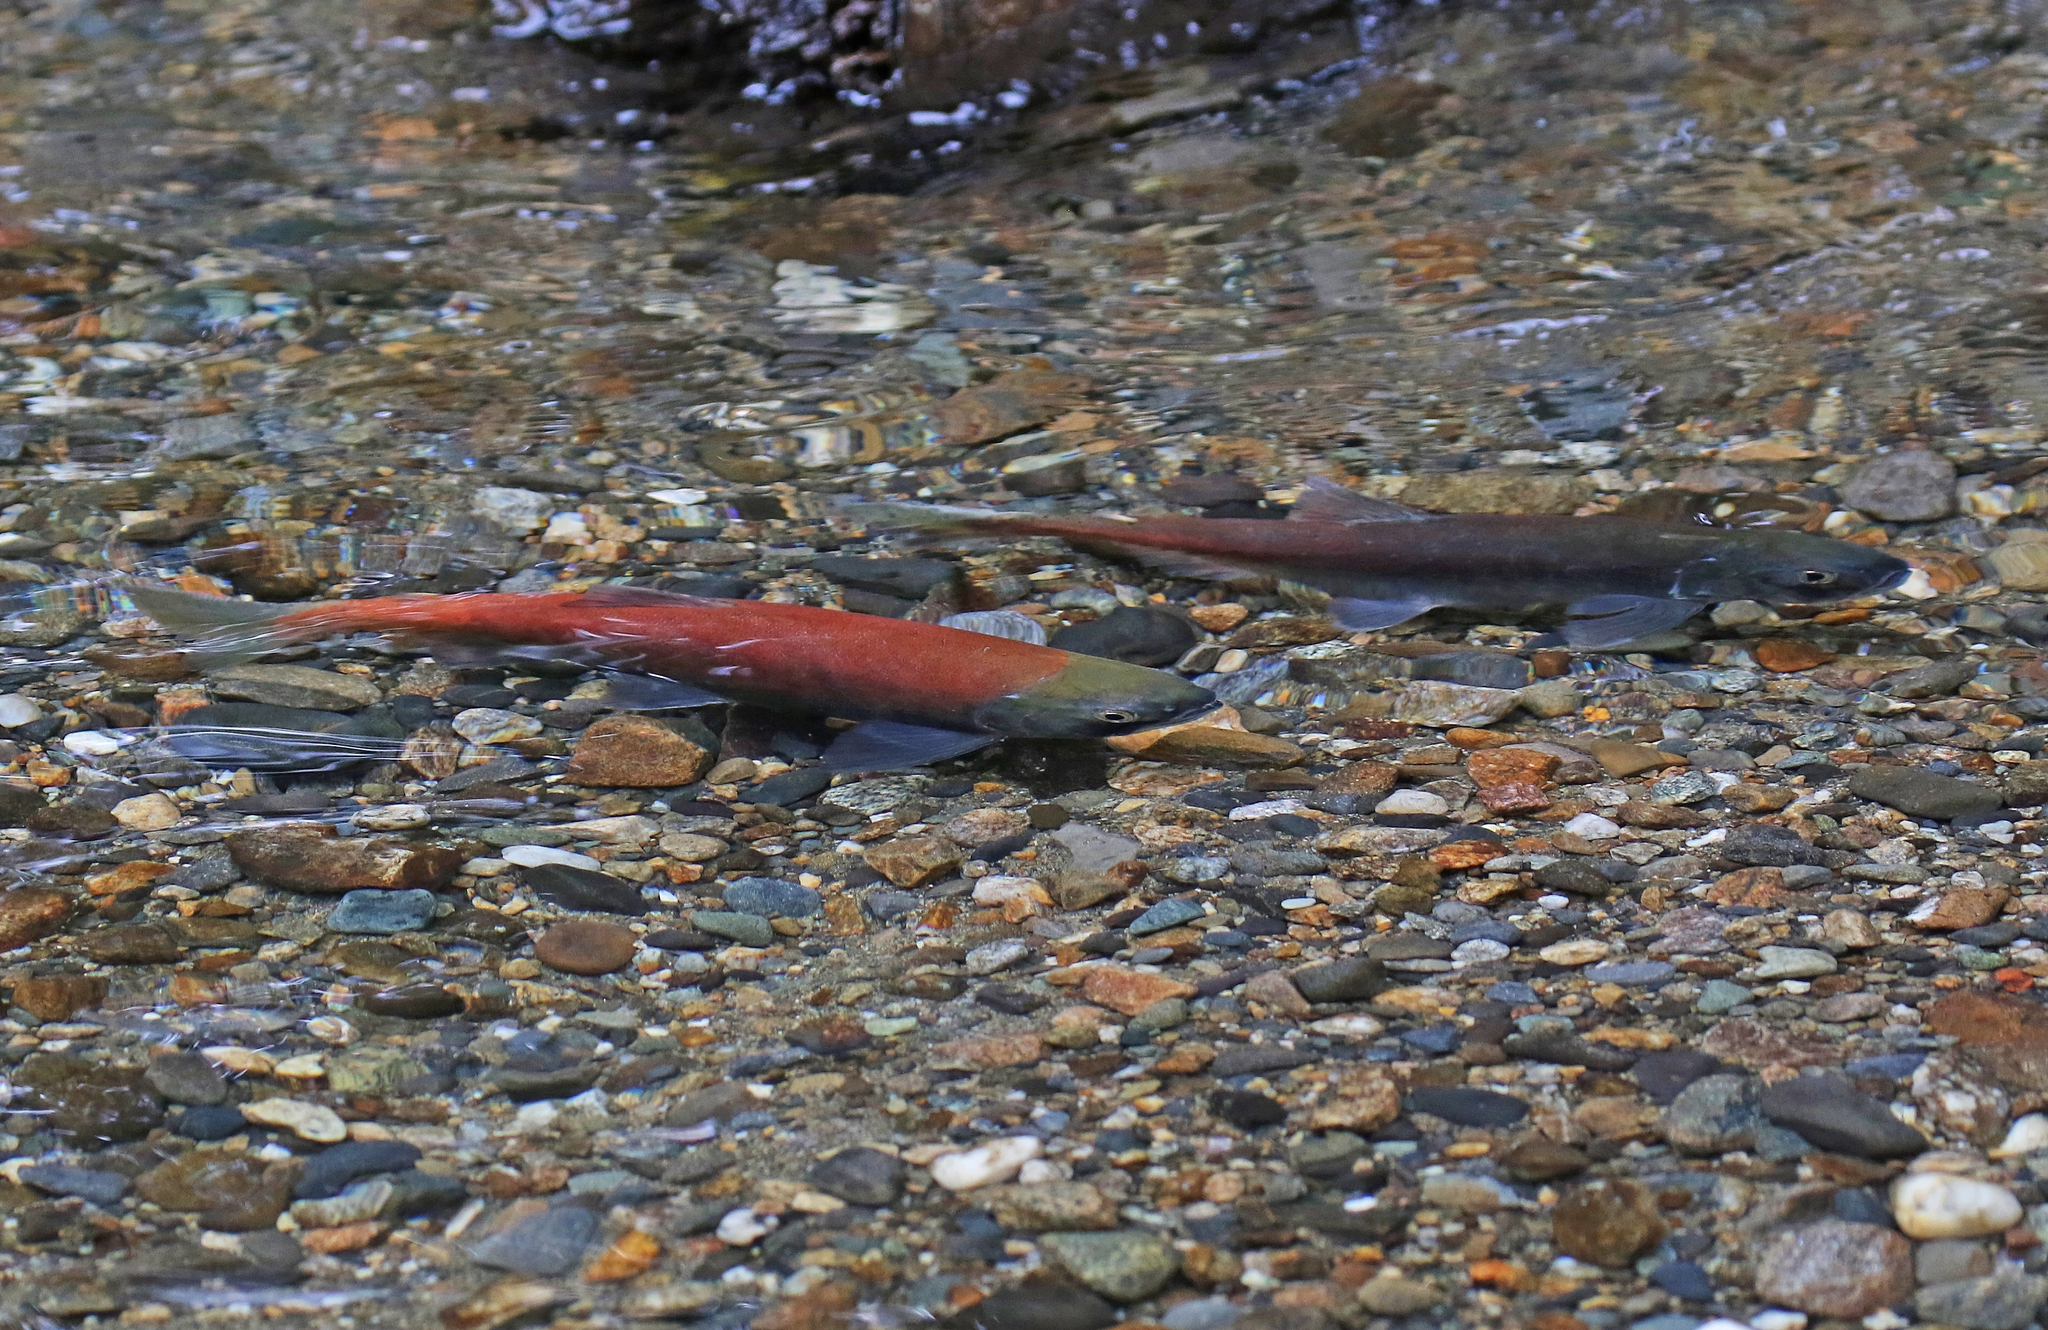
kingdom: Animalia
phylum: Chordata
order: Salmoniformes
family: Salmonidae
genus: Oncorhynchus
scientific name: Oncorhynchus nerka
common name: Sockeye salmon
